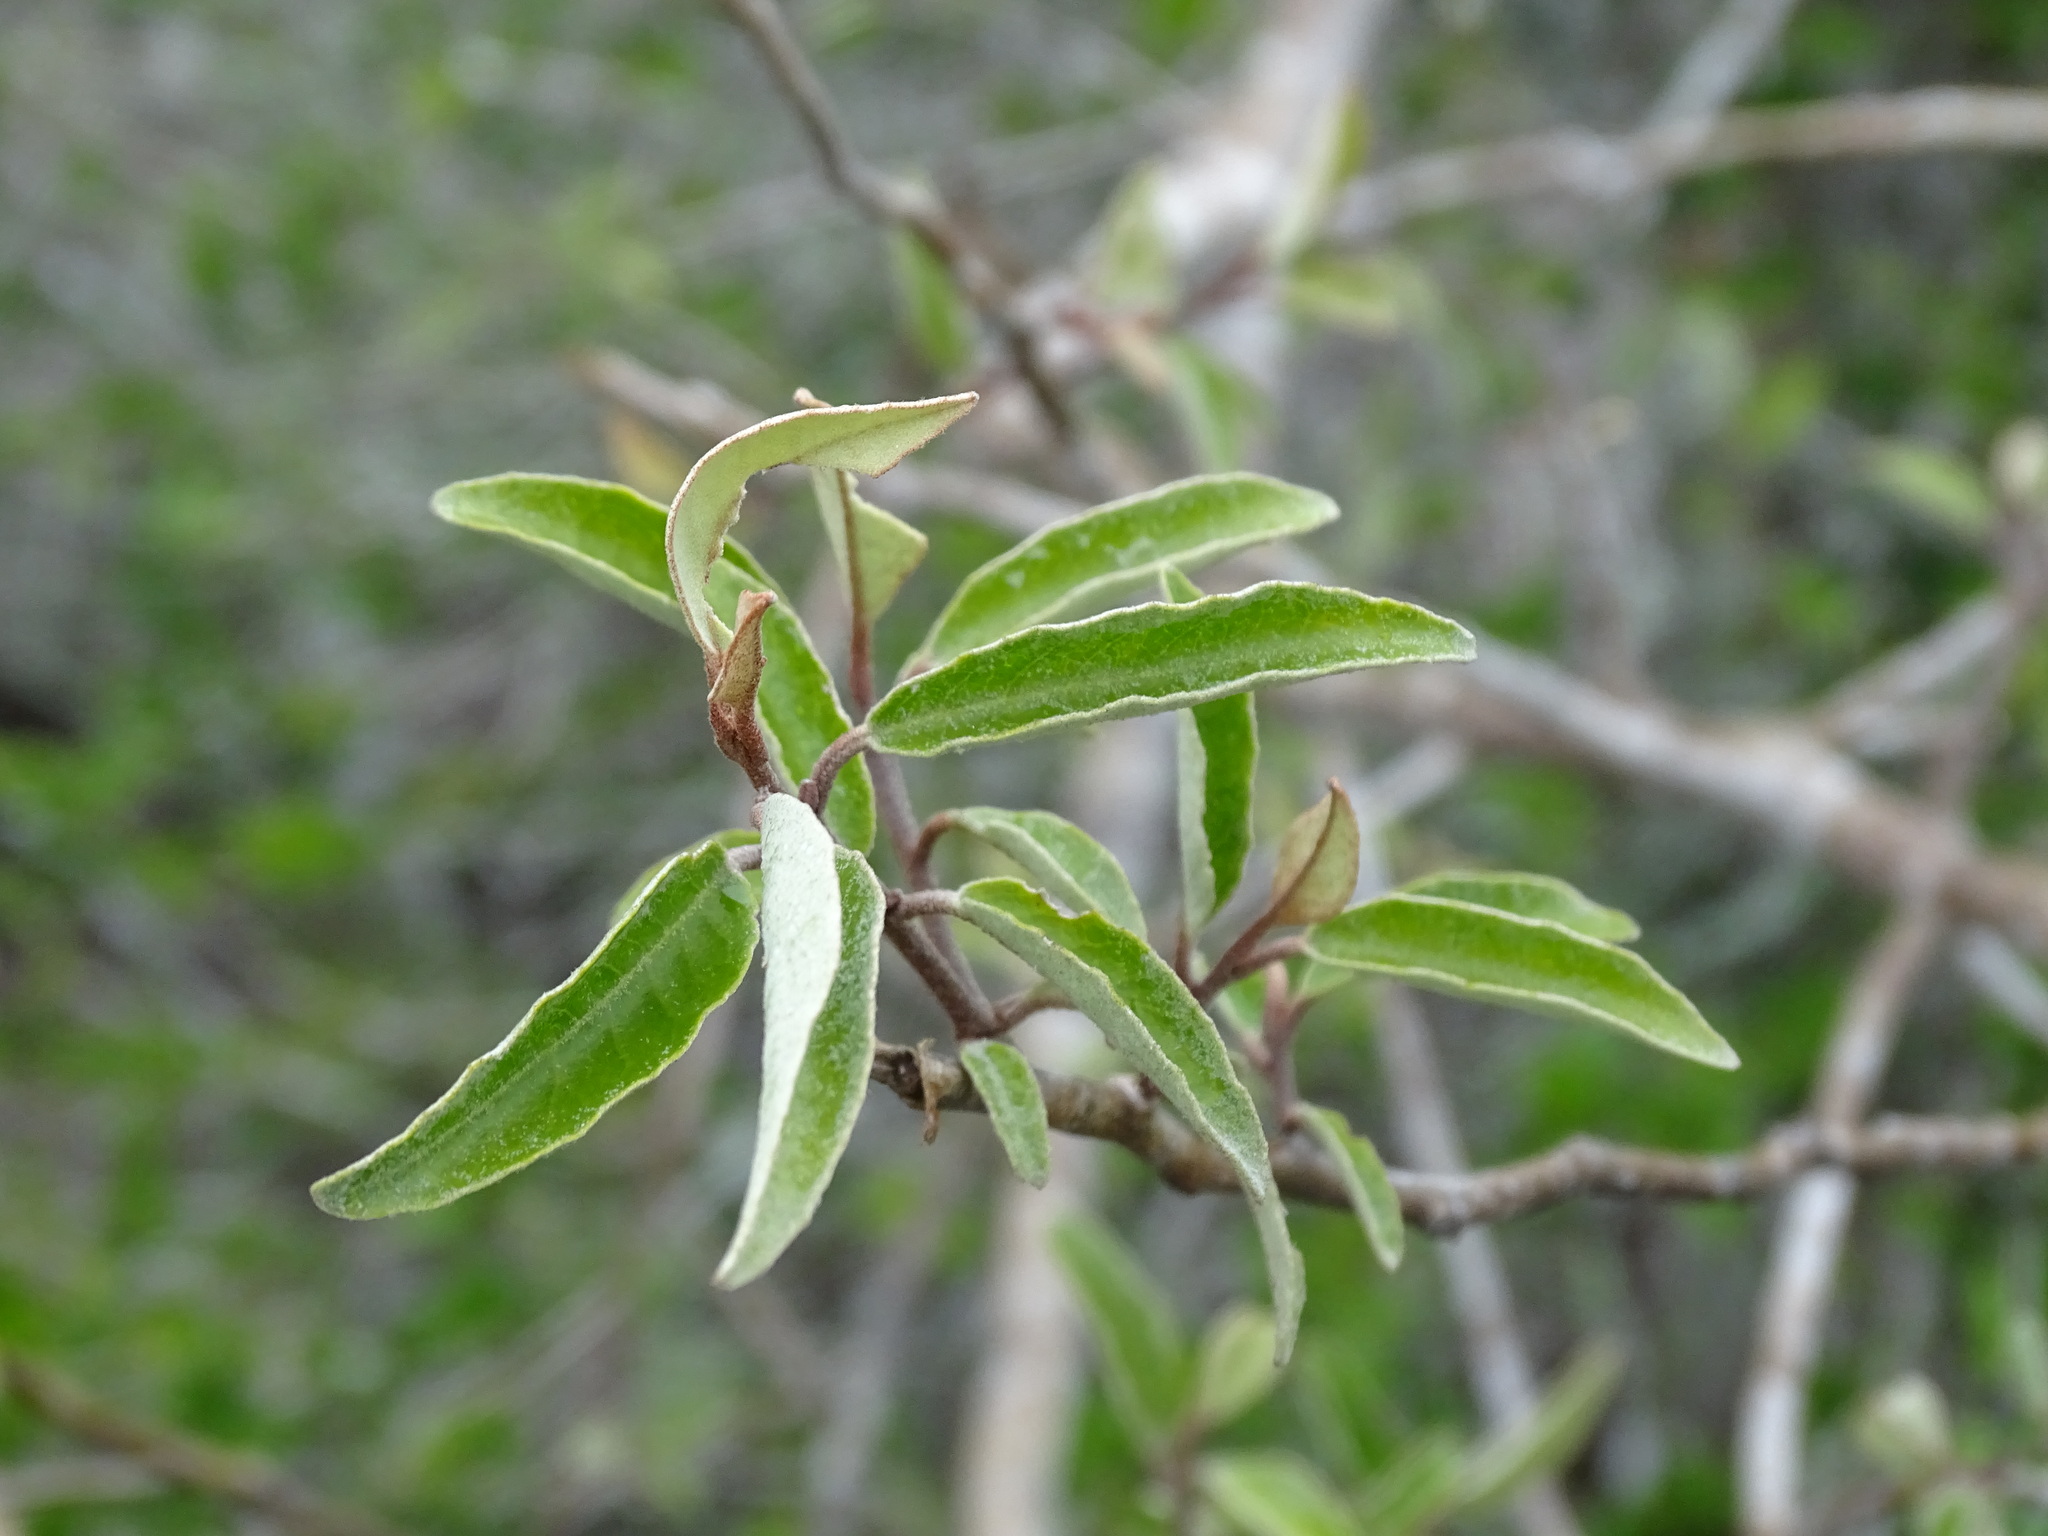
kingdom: Plantae
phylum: Tracheophyta
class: Magnoliopsida
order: Brassicales
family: Capparaceae
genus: Quadrella
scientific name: Quadrella incana
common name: Hoary caper
